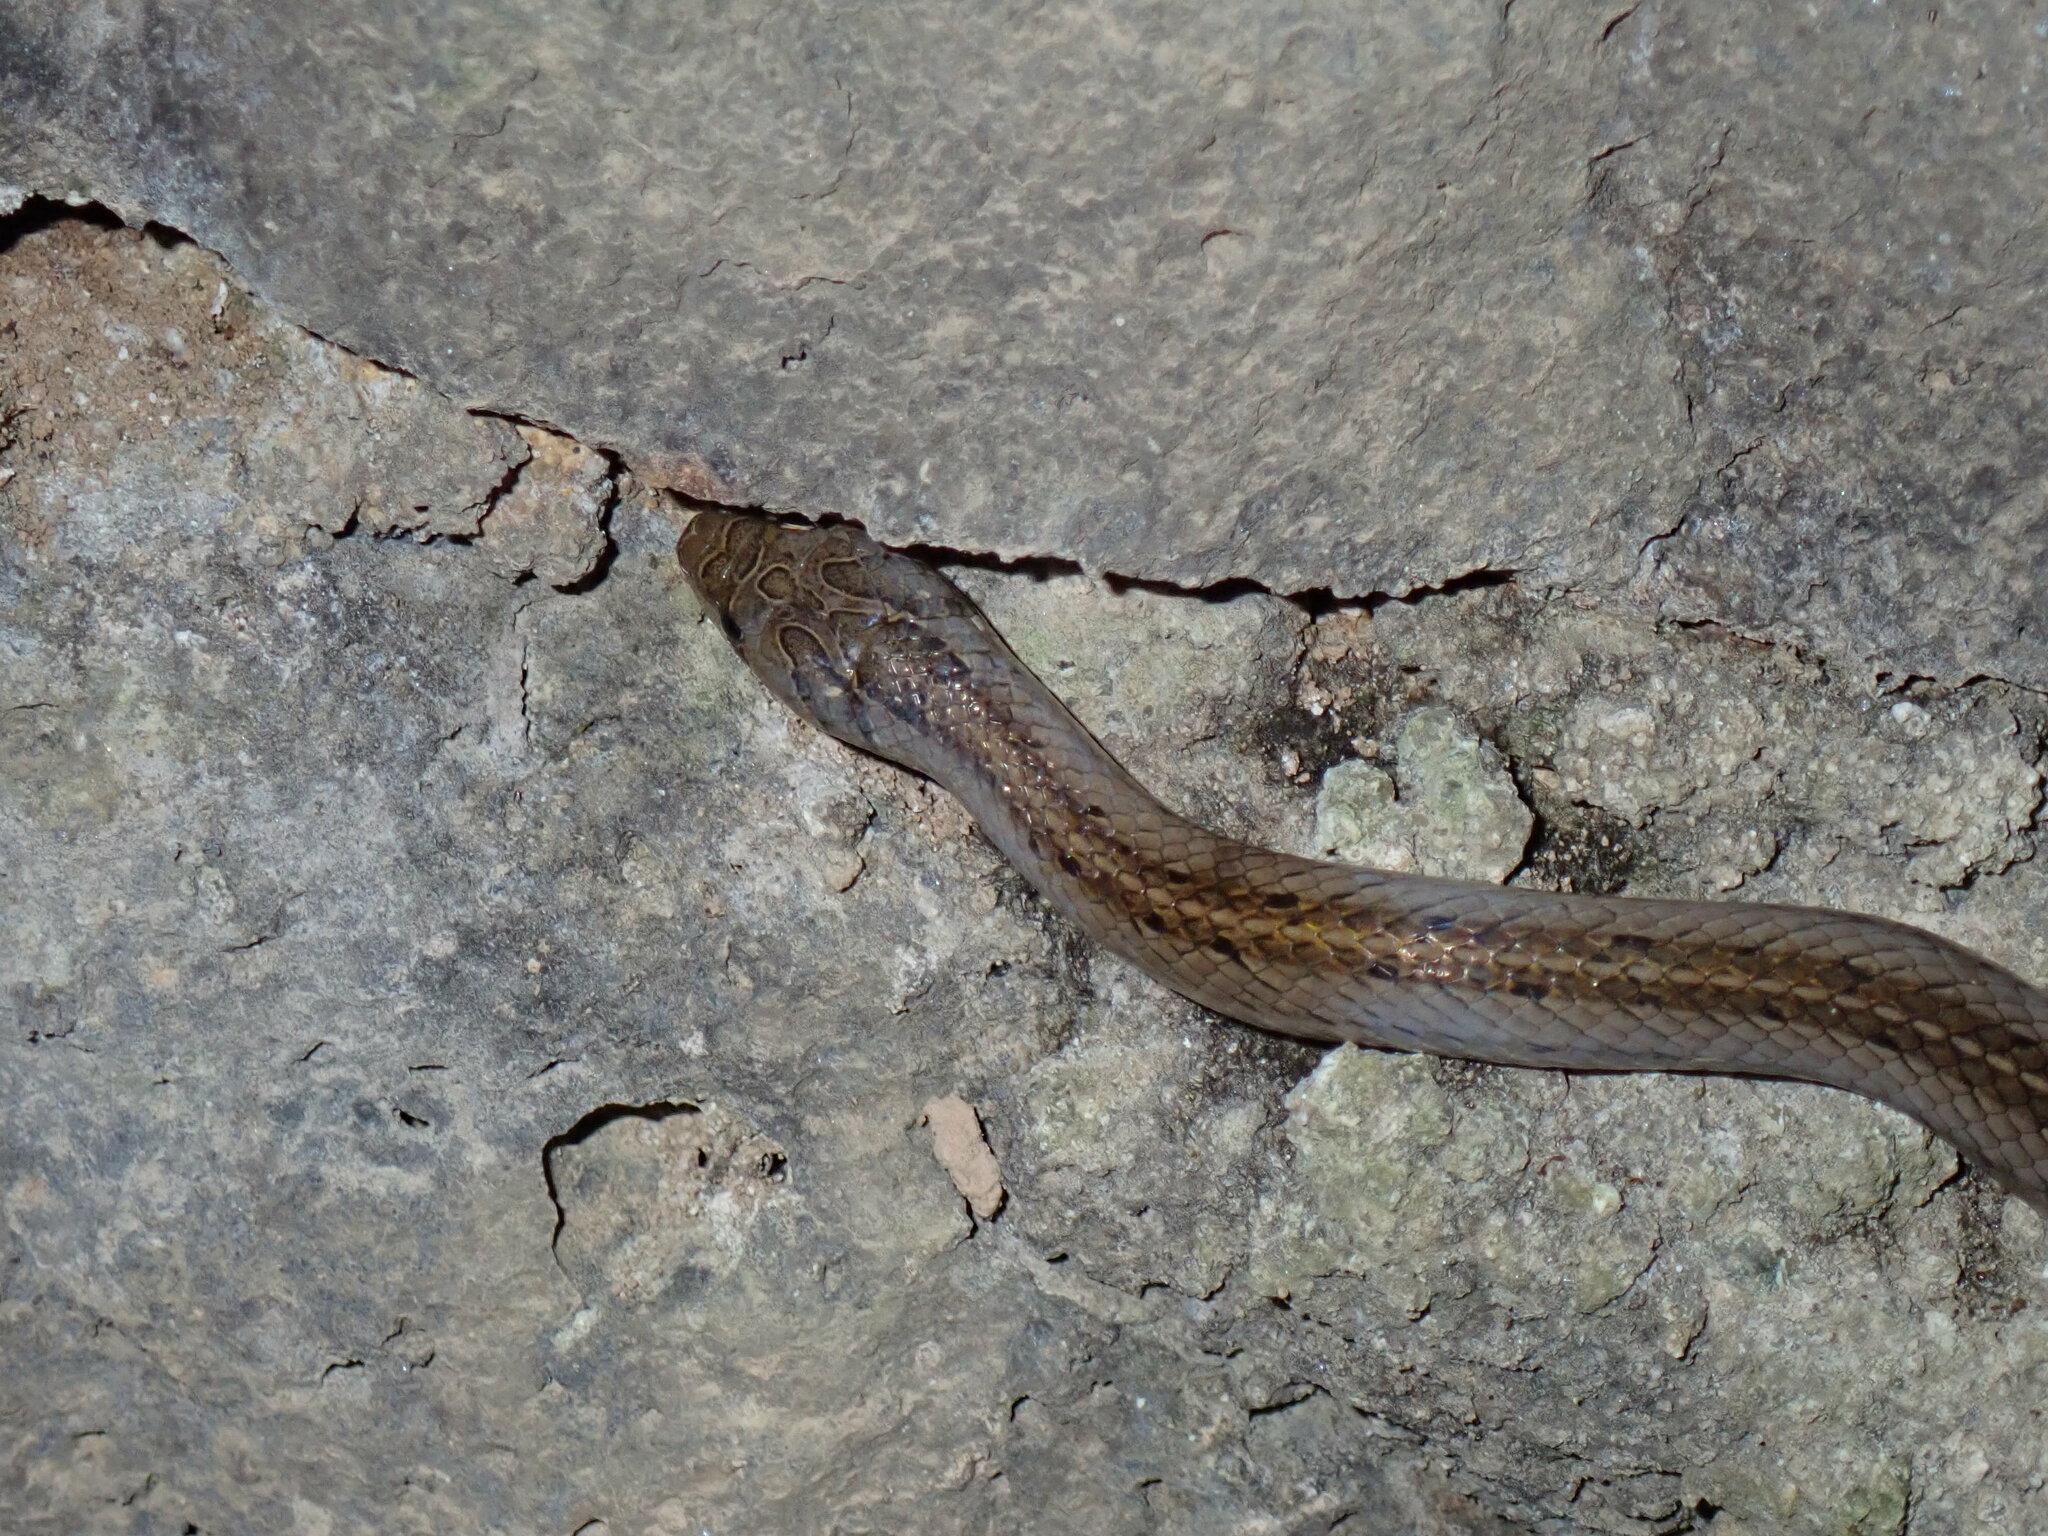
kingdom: Animalia
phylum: Chordata
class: Squamata
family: Colubridae
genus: Oligodon
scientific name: Oligodon deuvei
